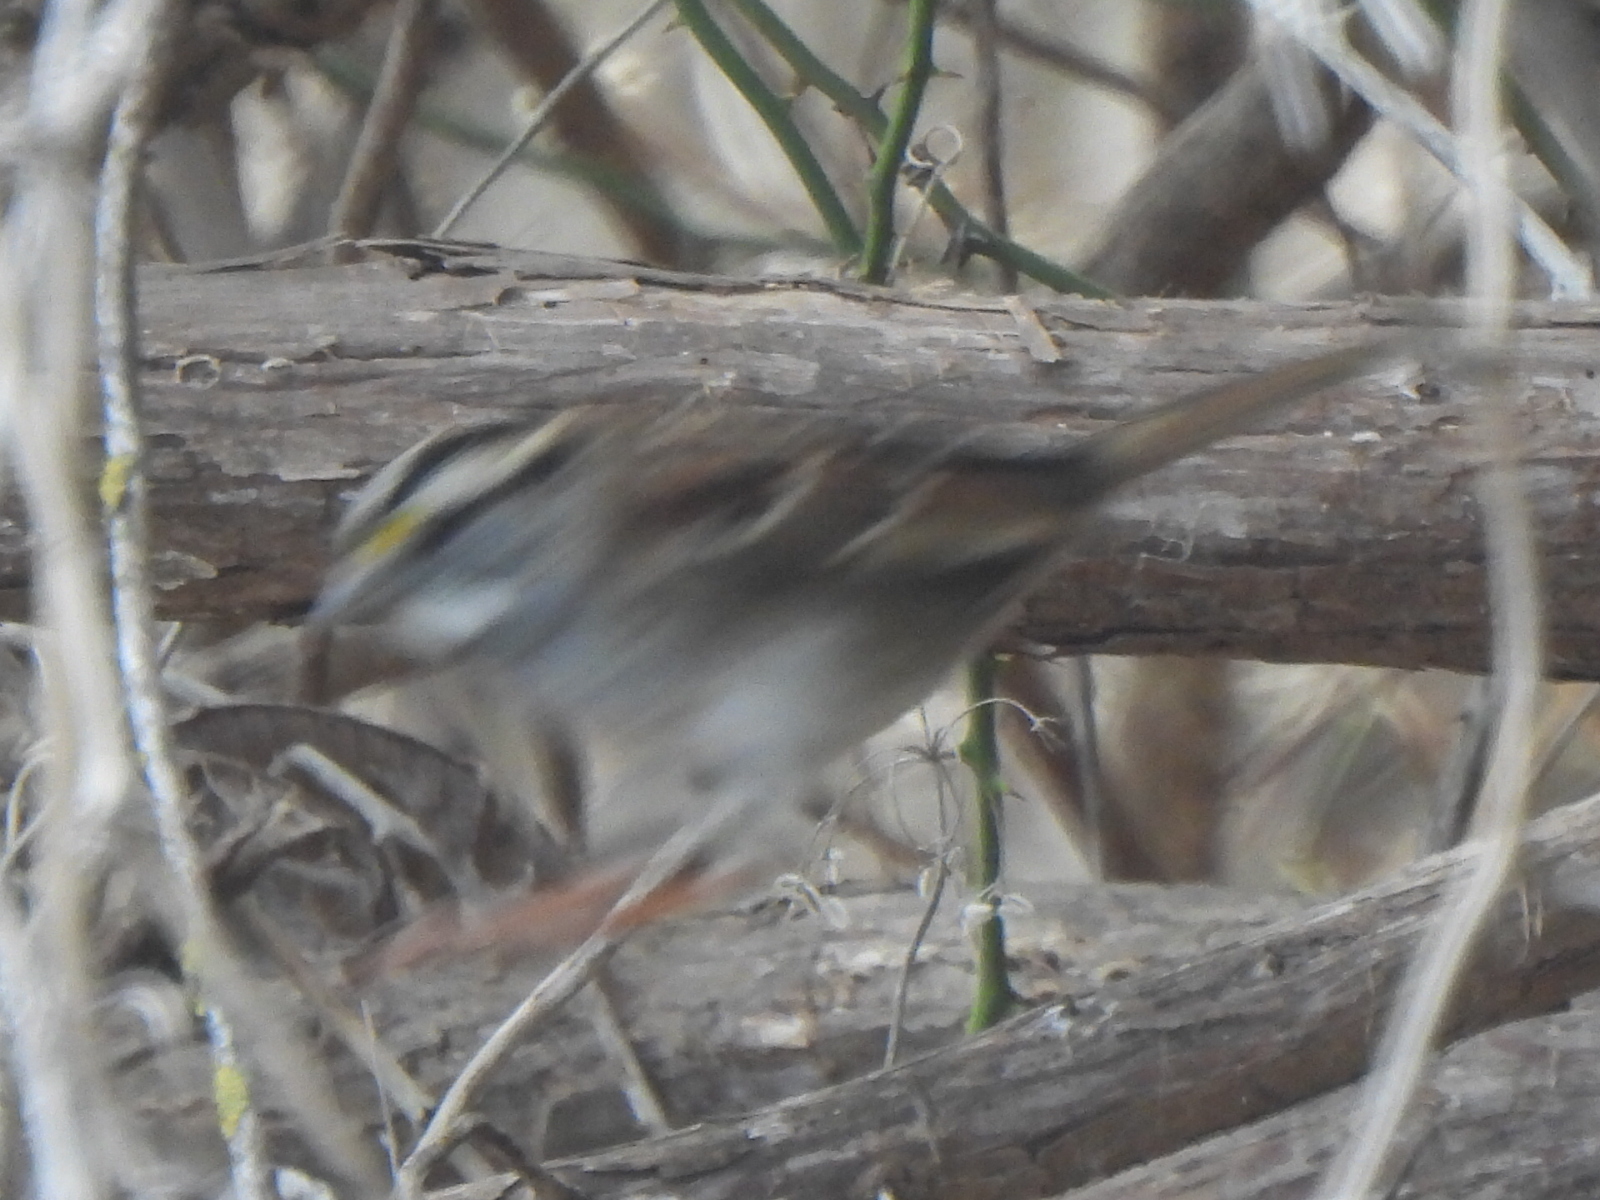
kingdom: Animalia
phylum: Chordata
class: Aves
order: Passeriformes
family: Passerellidae
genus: Zonotrichia
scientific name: Zonotrichia albicollis
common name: White-throated sparrow
